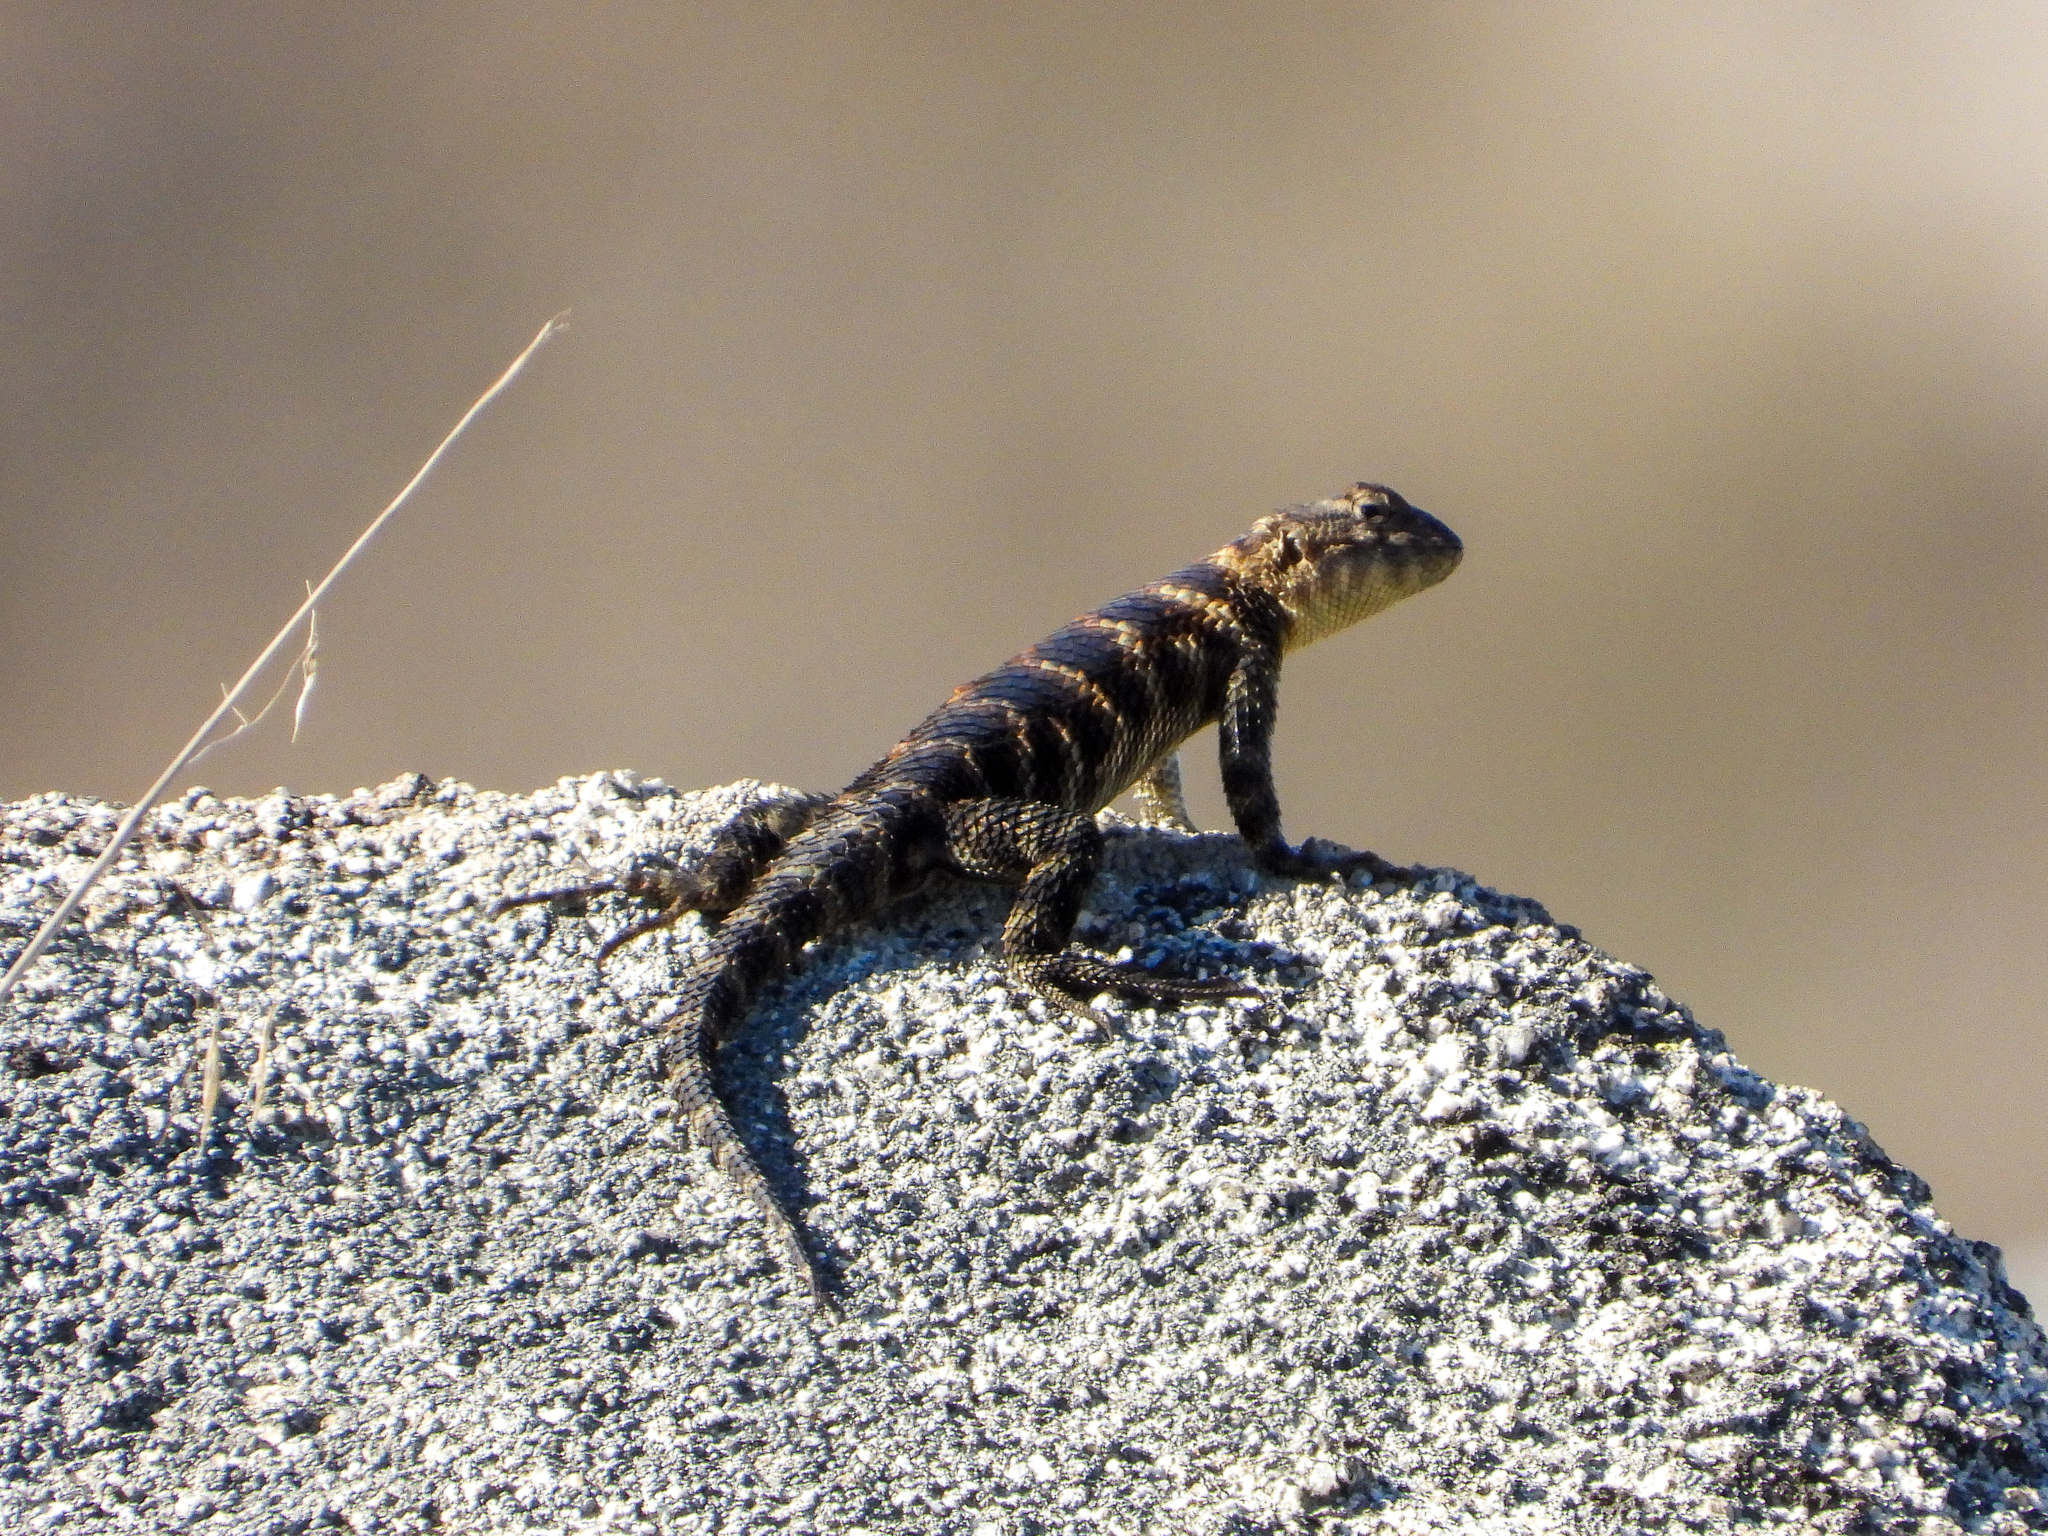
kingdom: Animalia
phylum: Chordata
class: Squamata
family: Phrynosomatidae
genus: Sceloporus
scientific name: Sceloporus orcutti
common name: Granite spiny lizard
